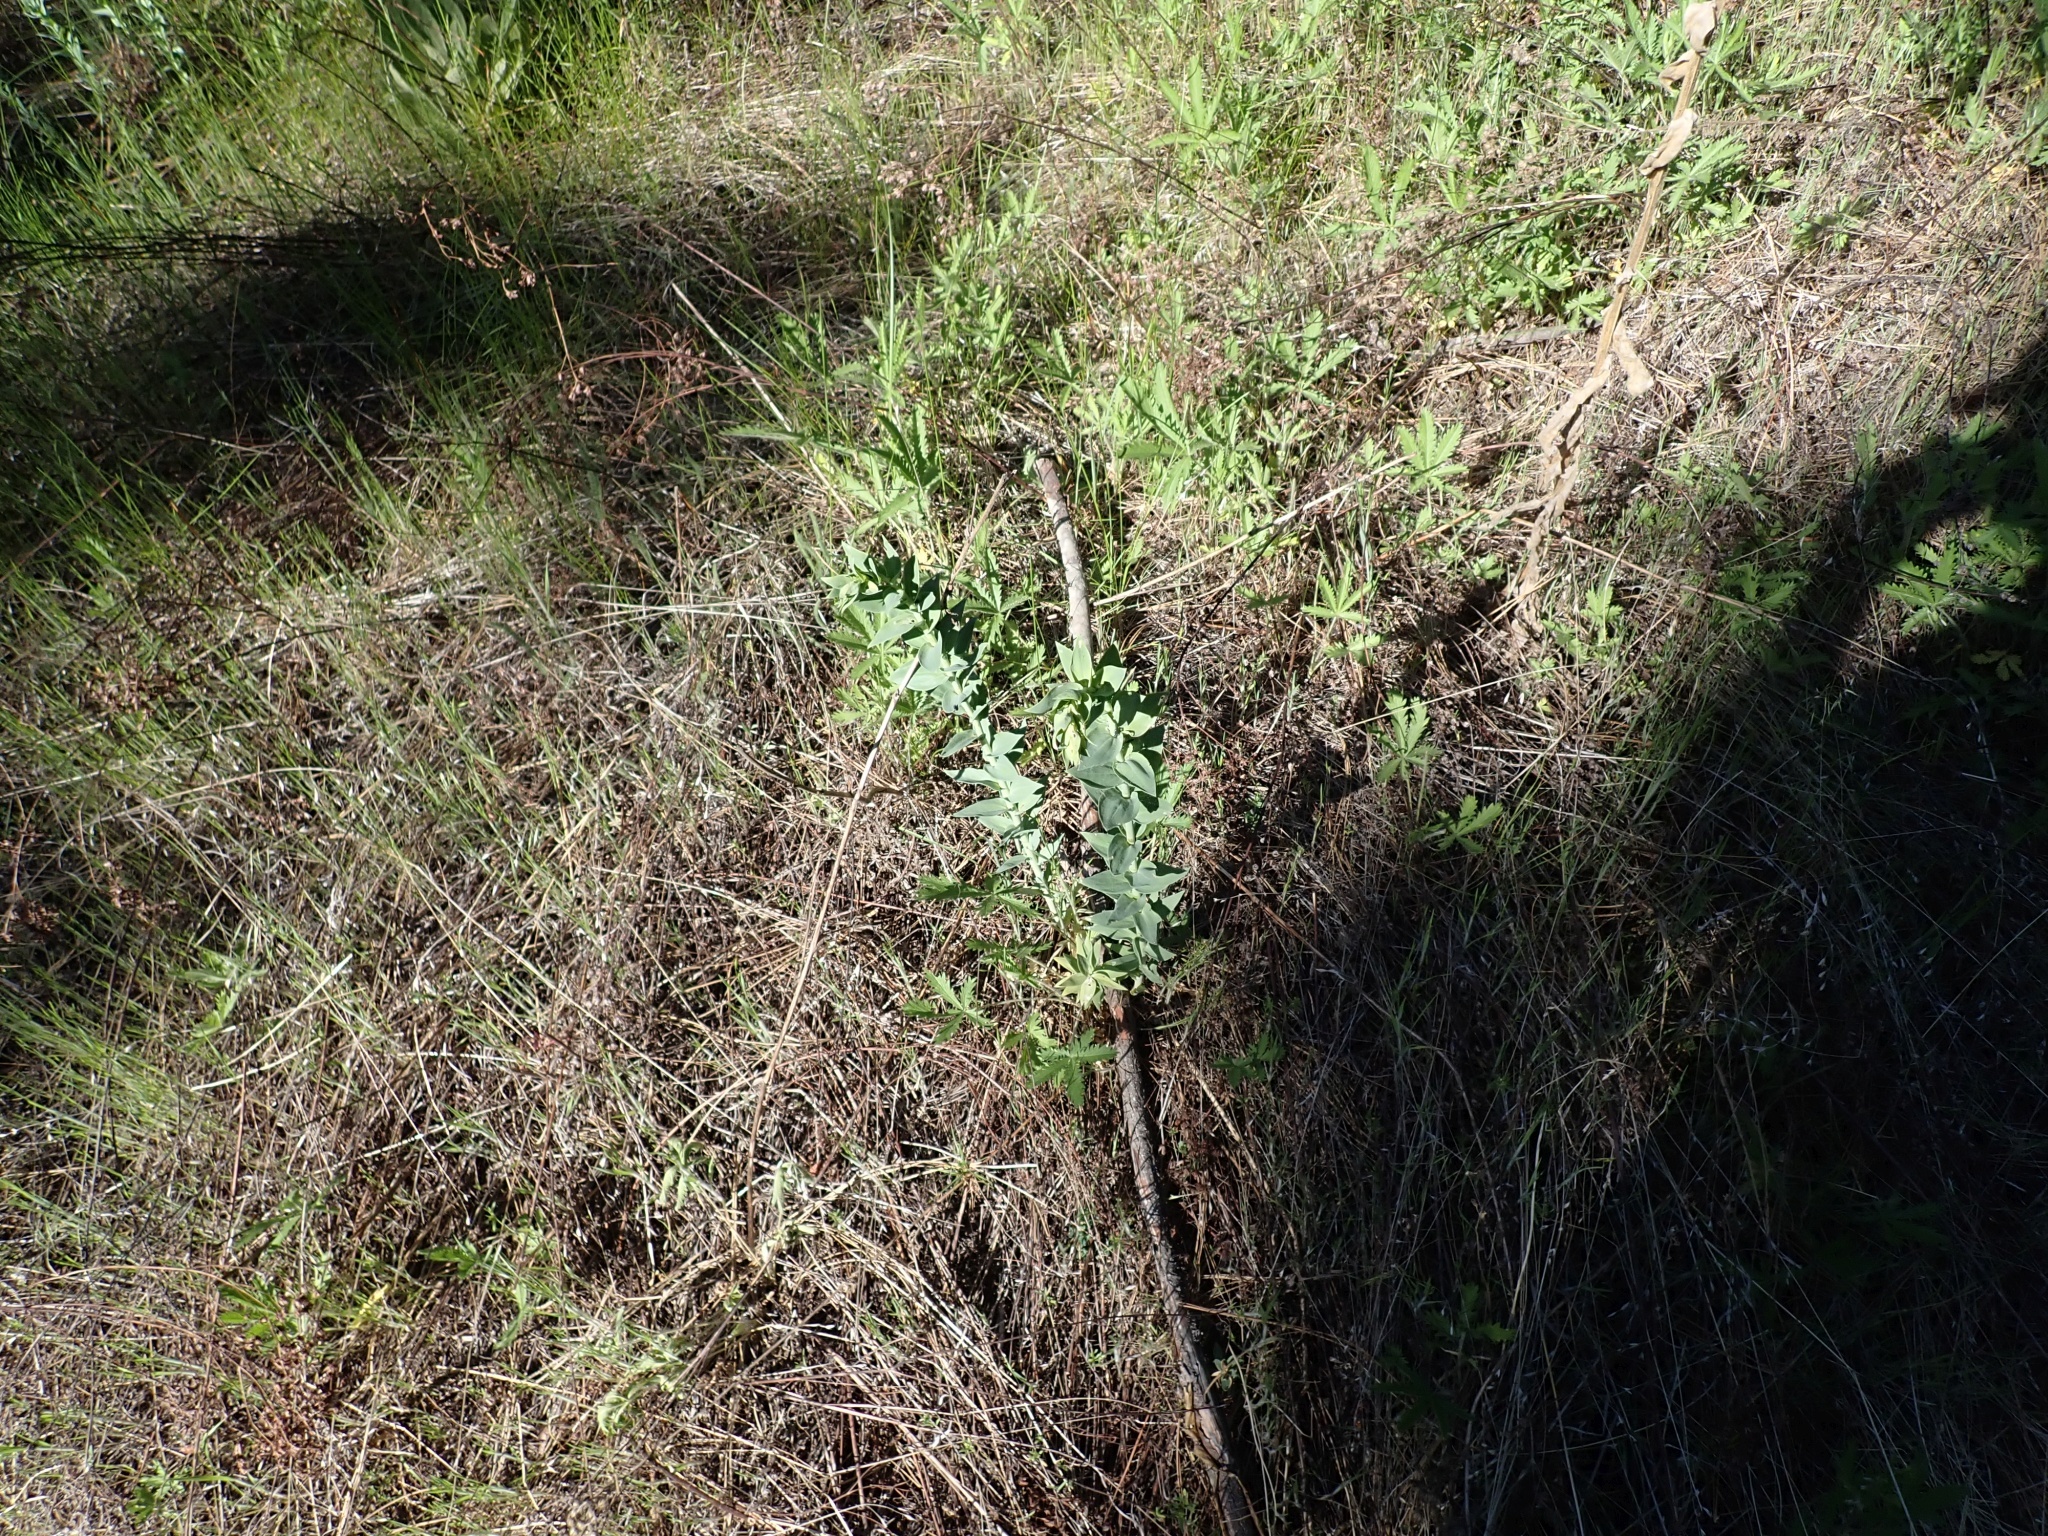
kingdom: Plantae
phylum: Tracheophyta
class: Magnoliopsida
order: Lamiales
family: Plantaginaceae
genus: Linaria
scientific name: Linaria dalmatica
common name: Dalmatian toadflax
